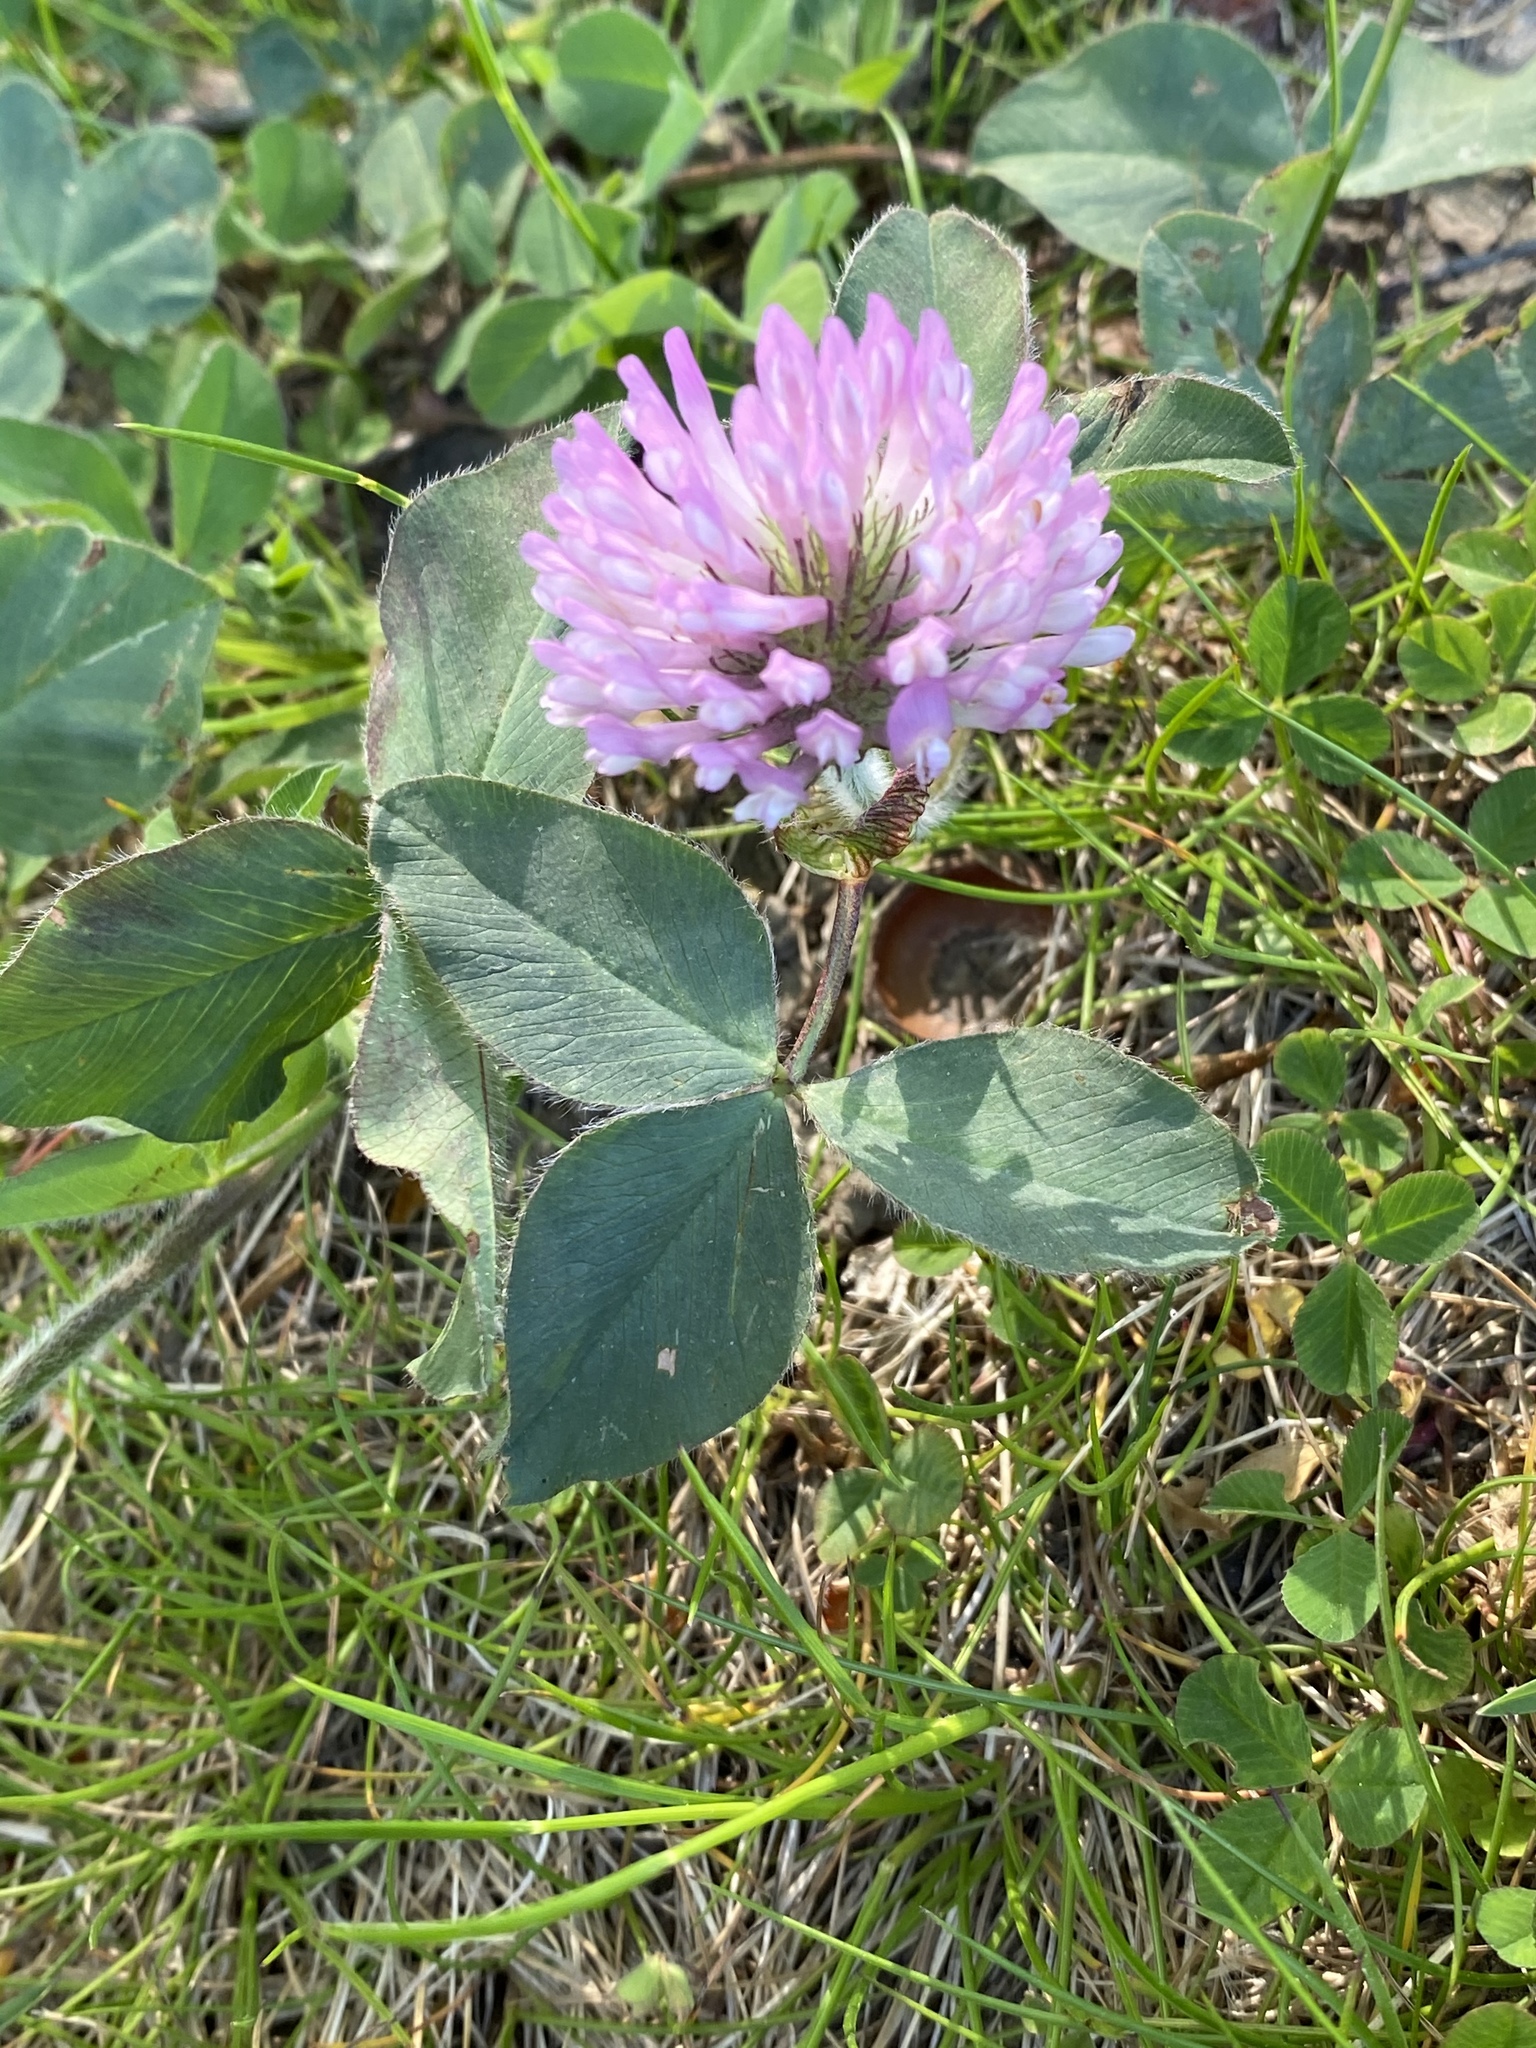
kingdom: Plantae
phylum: Tracheophyta
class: Magnoliopsida
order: Fabales
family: Fabaceae
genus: Trifolium
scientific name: Trifolium pratense
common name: Red clover
